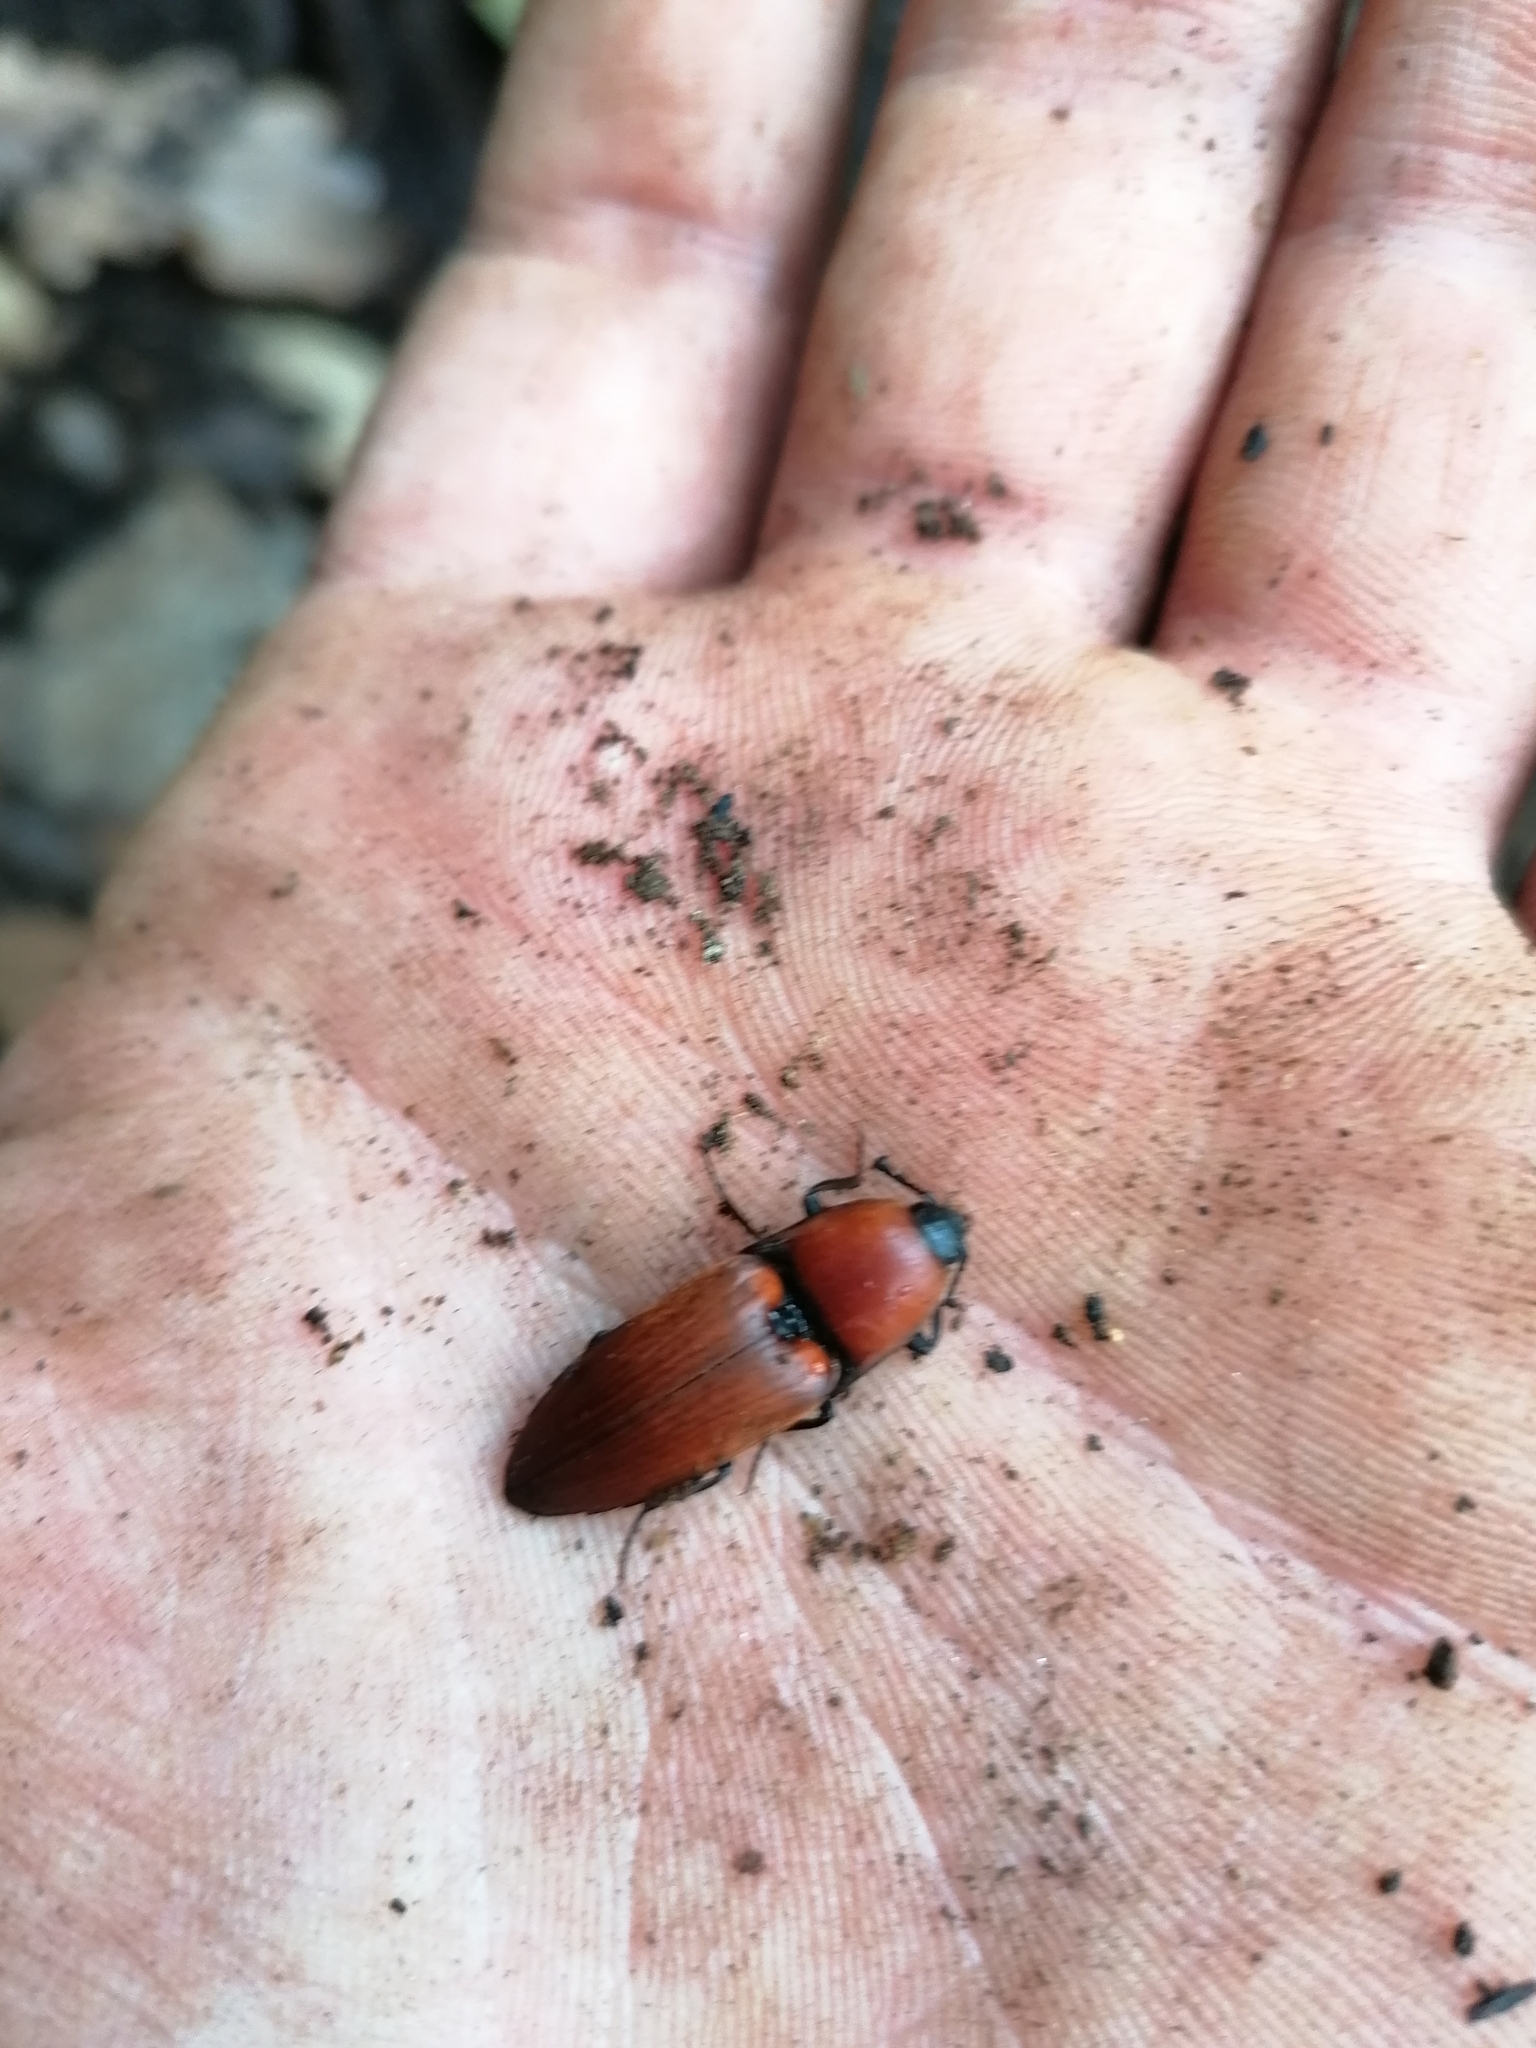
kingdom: Animalia
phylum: Arthropoda
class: Insecta
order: Coleoptera
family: Elateridae
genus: Elater
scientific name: Elater ferrugineus
